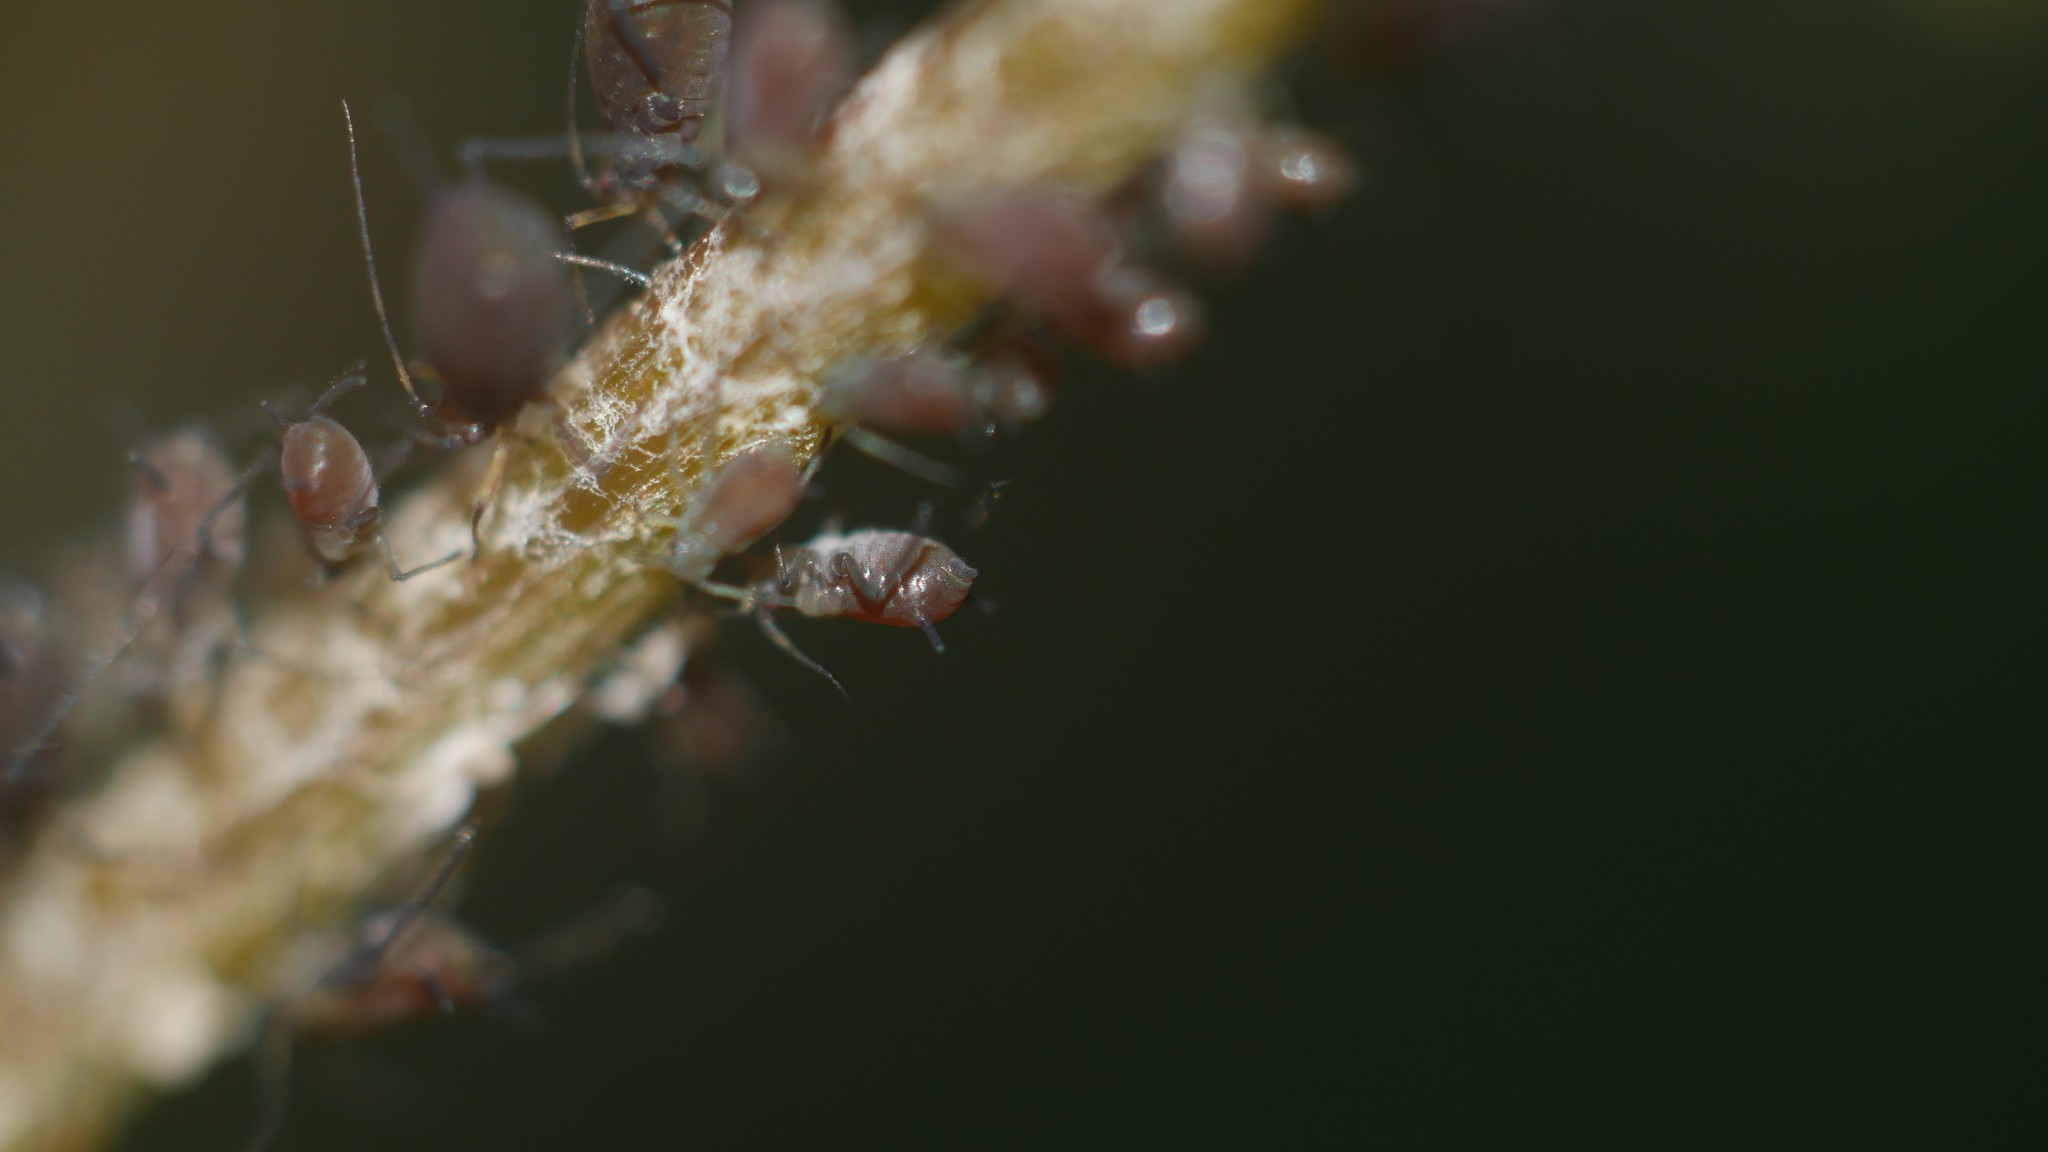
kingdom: Animalia
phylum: Arthropoda
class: Insecta
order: Hemiptera
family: Aphididae
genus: Aphis
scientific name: Aphis illinoisensis
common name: Grapevine aphid
